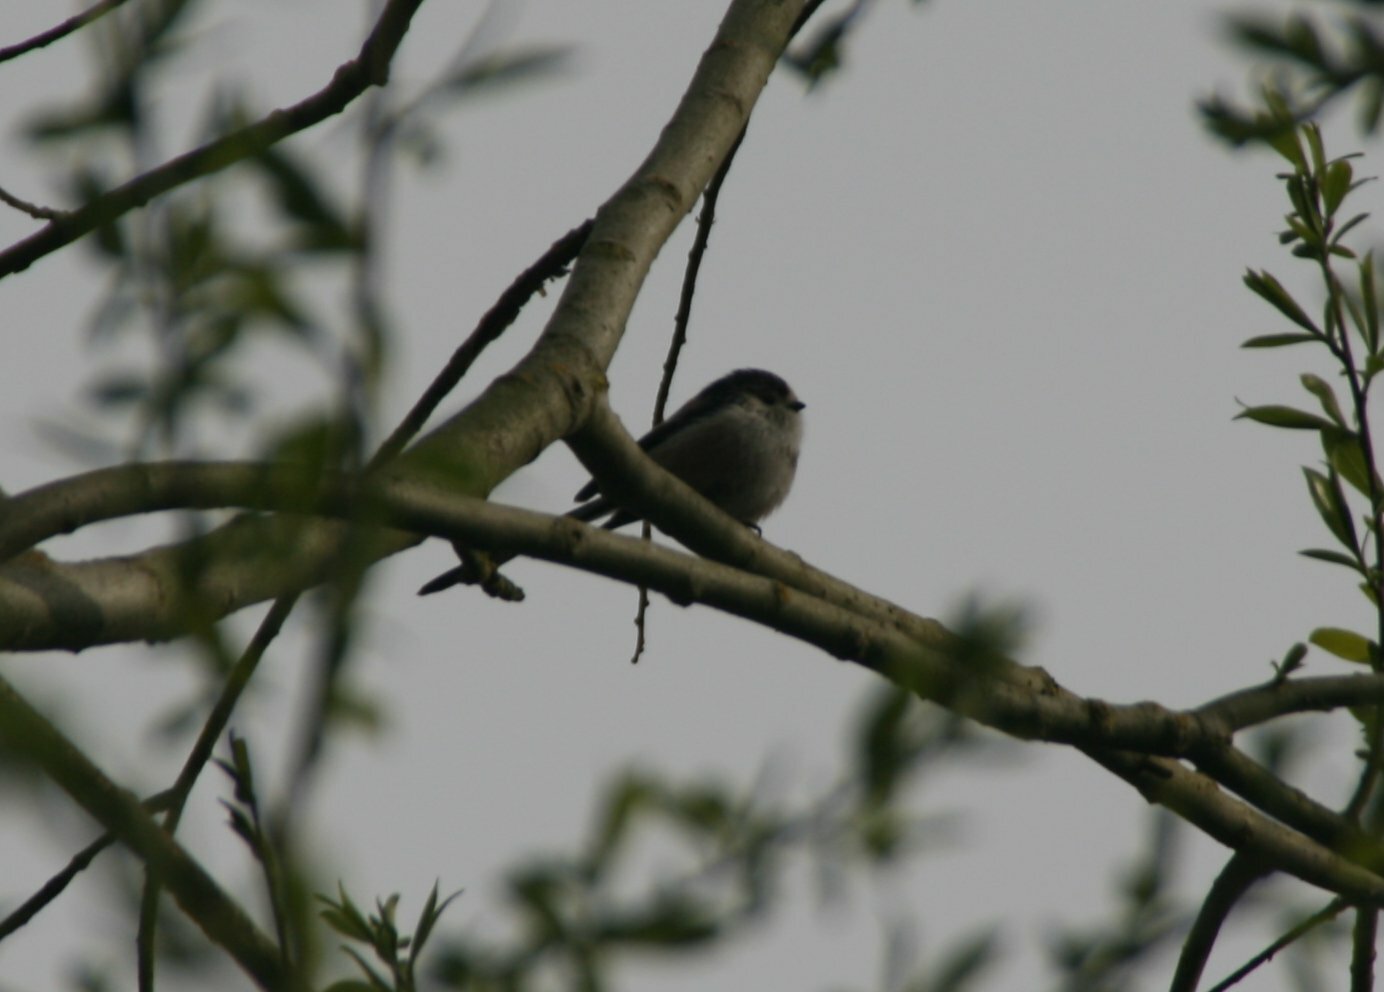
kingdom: Animalia
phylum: Chordata
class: Aves
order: Passeriformes
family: Aegithalidae
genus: Aegithalos
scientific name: Aegithalos caudatus
